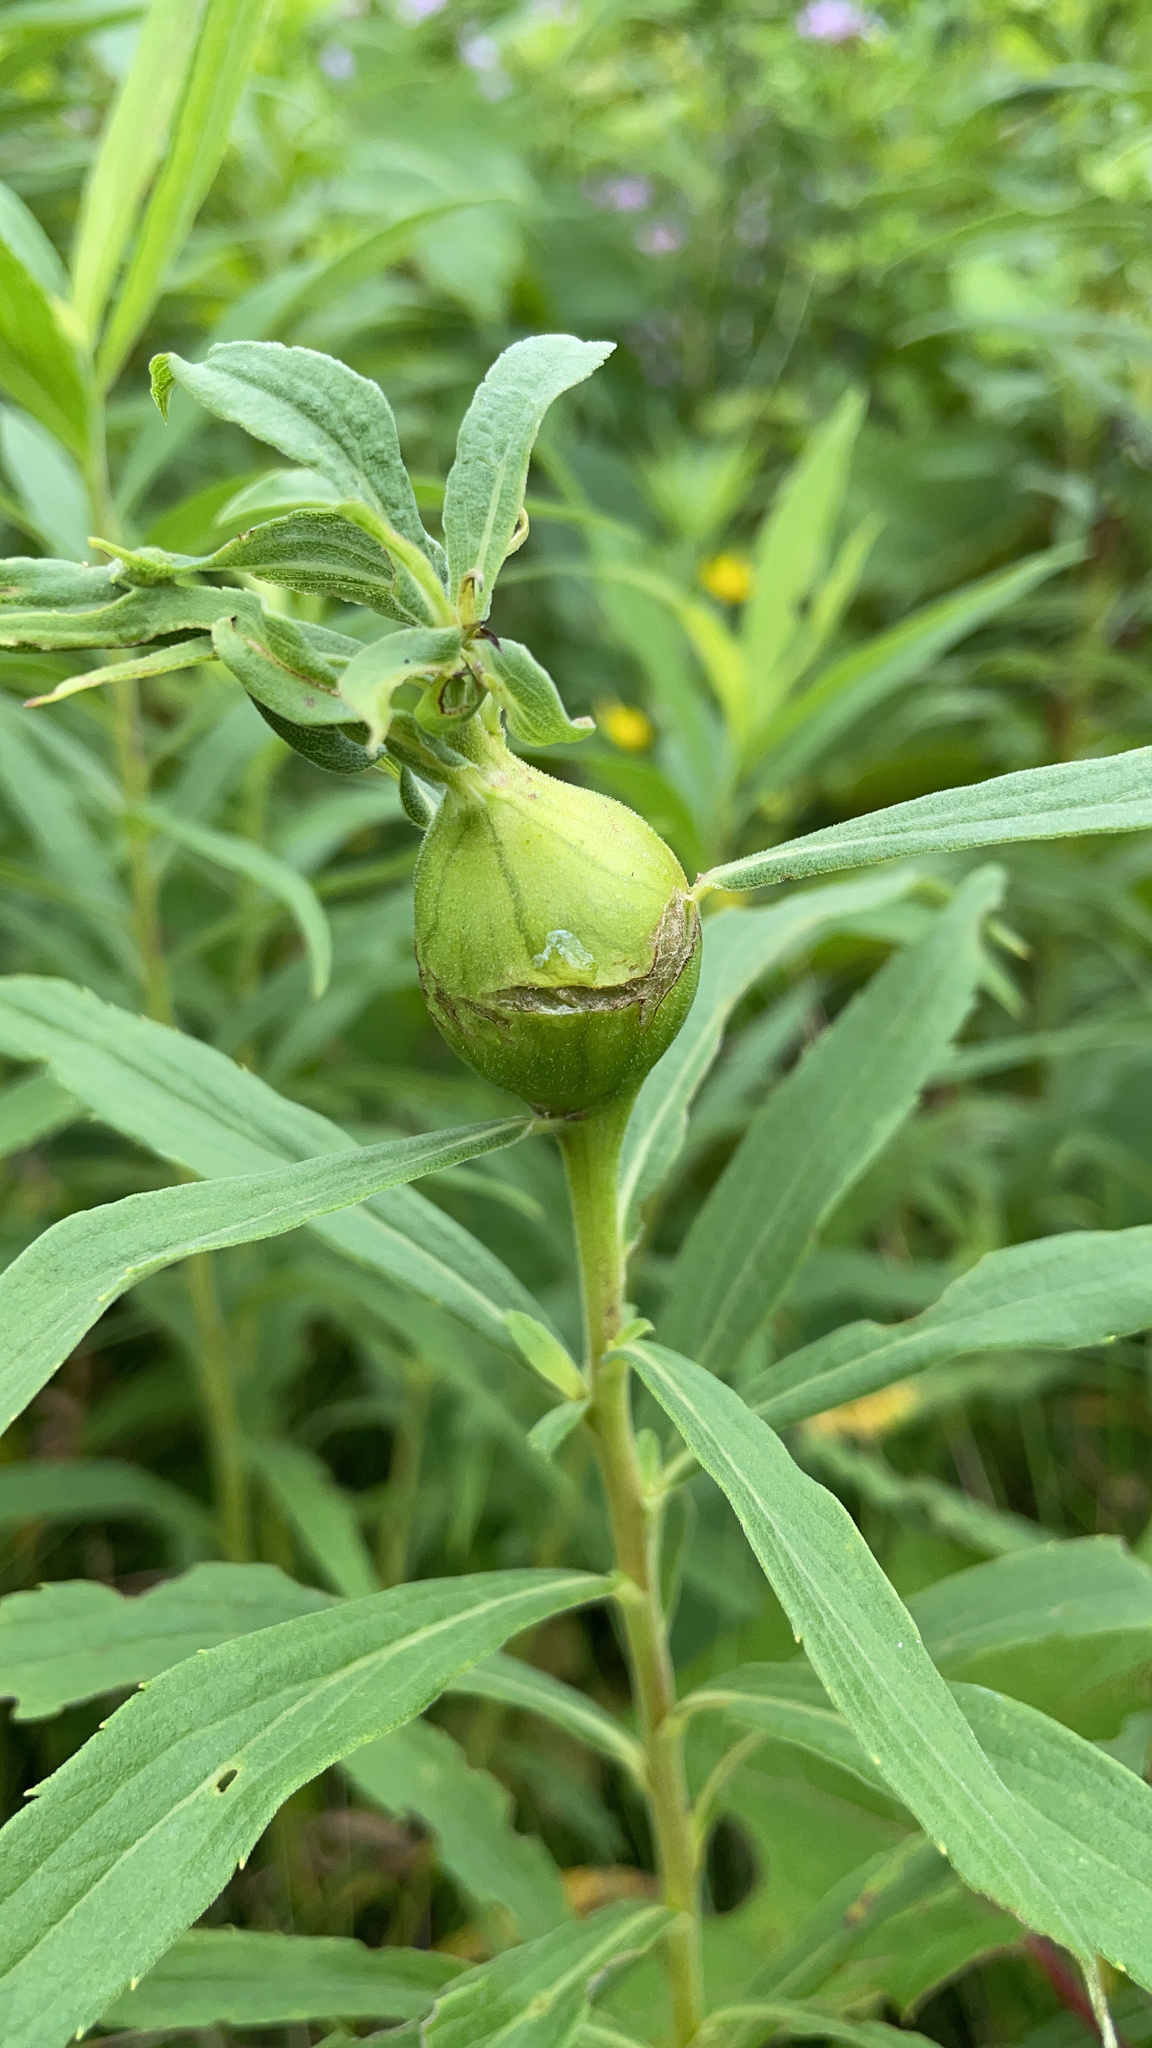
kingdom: Animalia
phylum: Arthropoda
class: Insecta
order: Diptera
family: Tephritidae
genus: Eurosta
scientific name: Eurosta solidaginis
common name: Goldenrod gall fly
